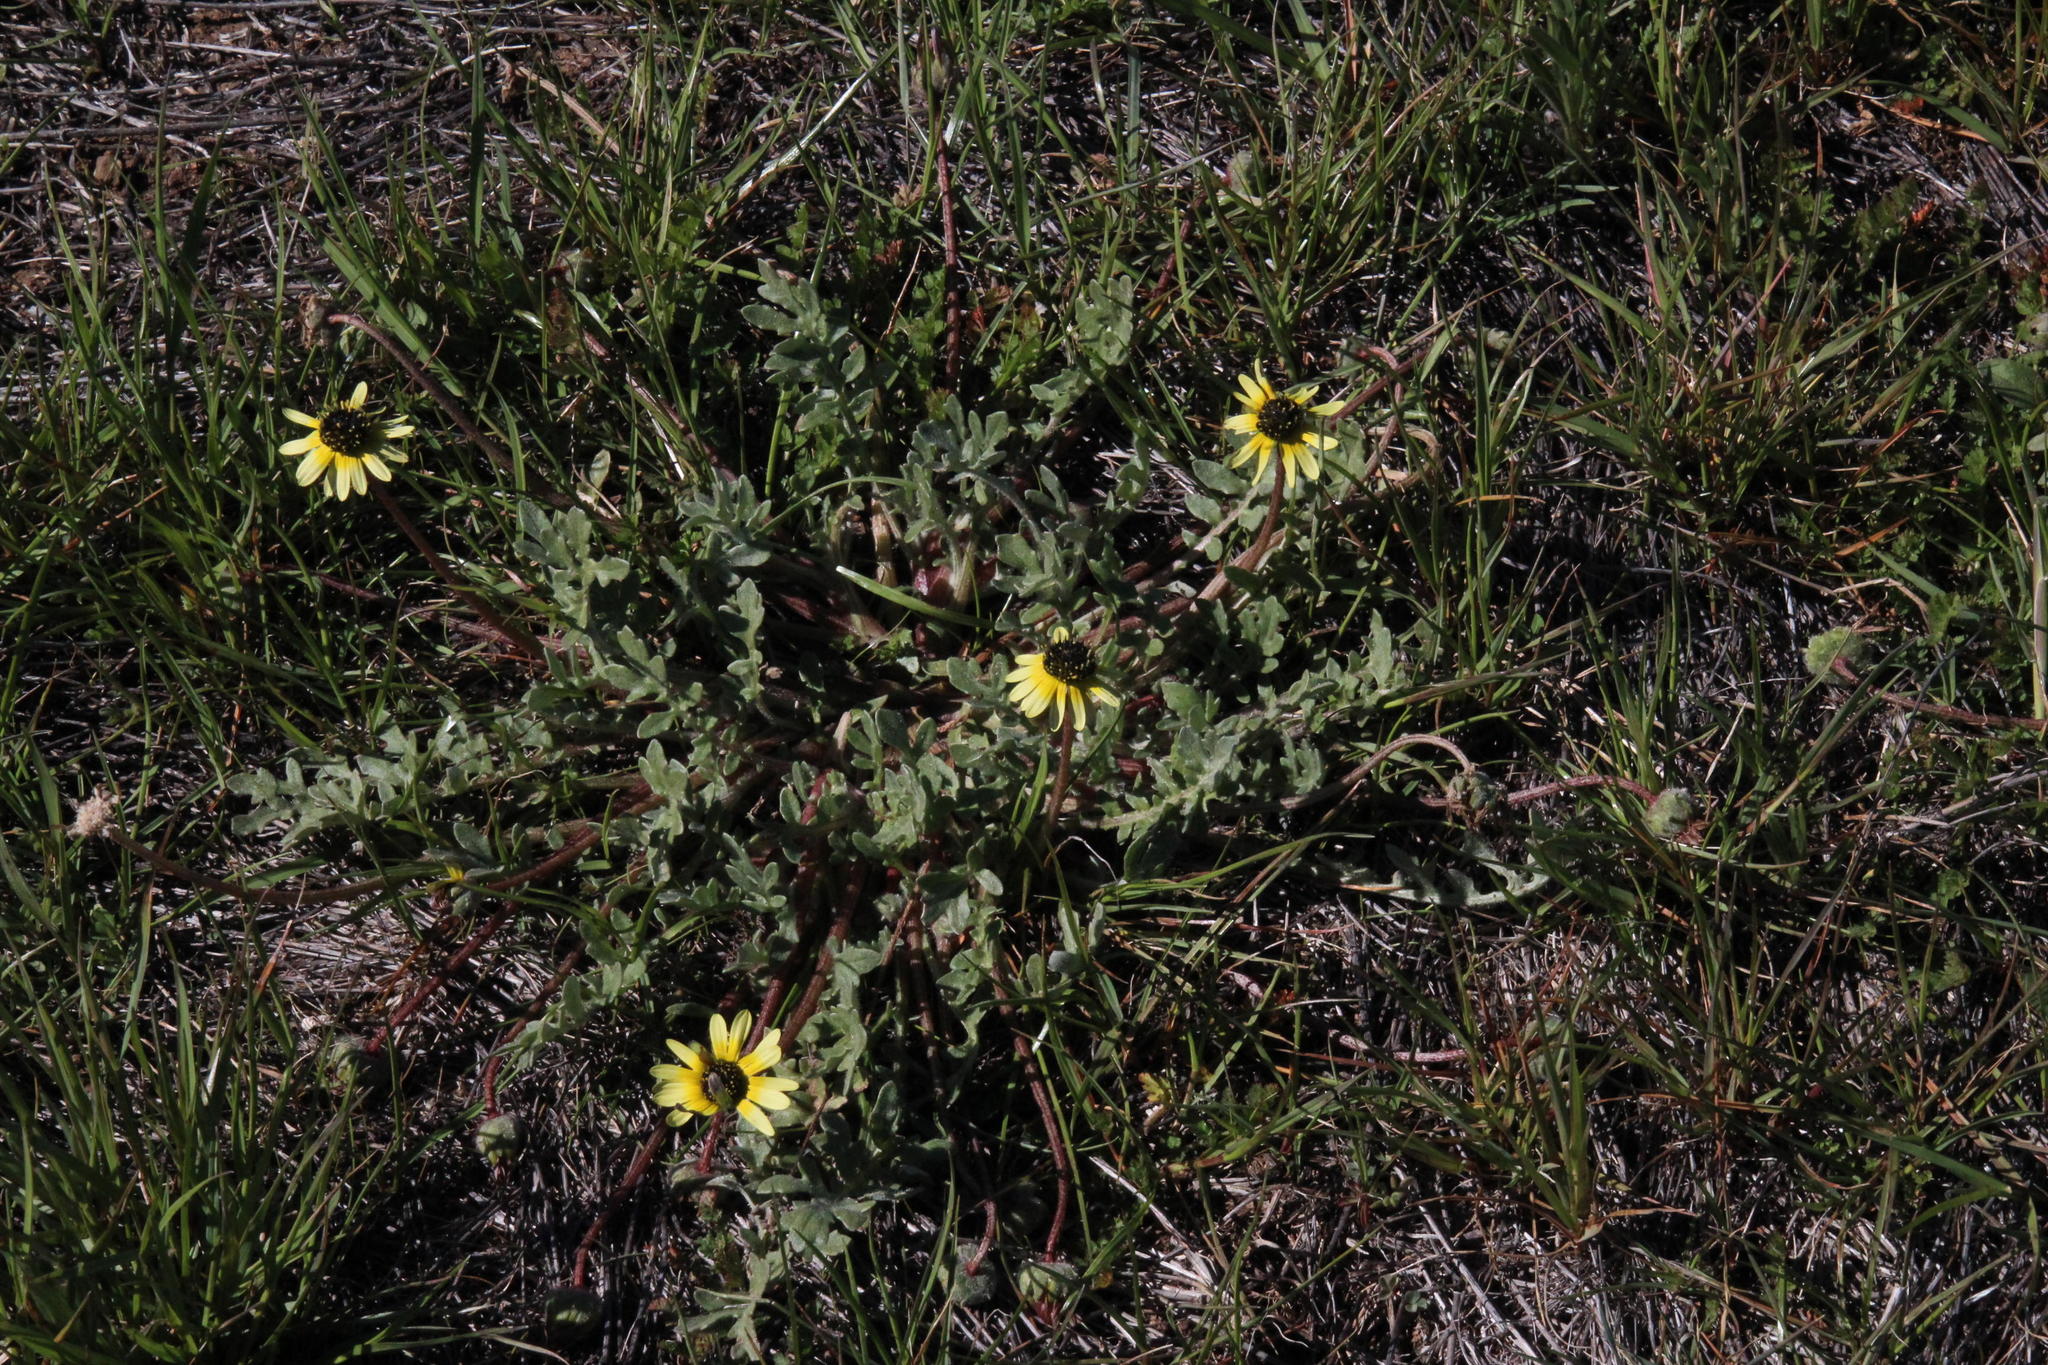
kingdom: Plantae
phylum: Tracheophyta
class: Magnoliopsida
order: Asterales
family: Asteraceae
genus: Arctotis
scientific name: Arctotis sulcocarpa
